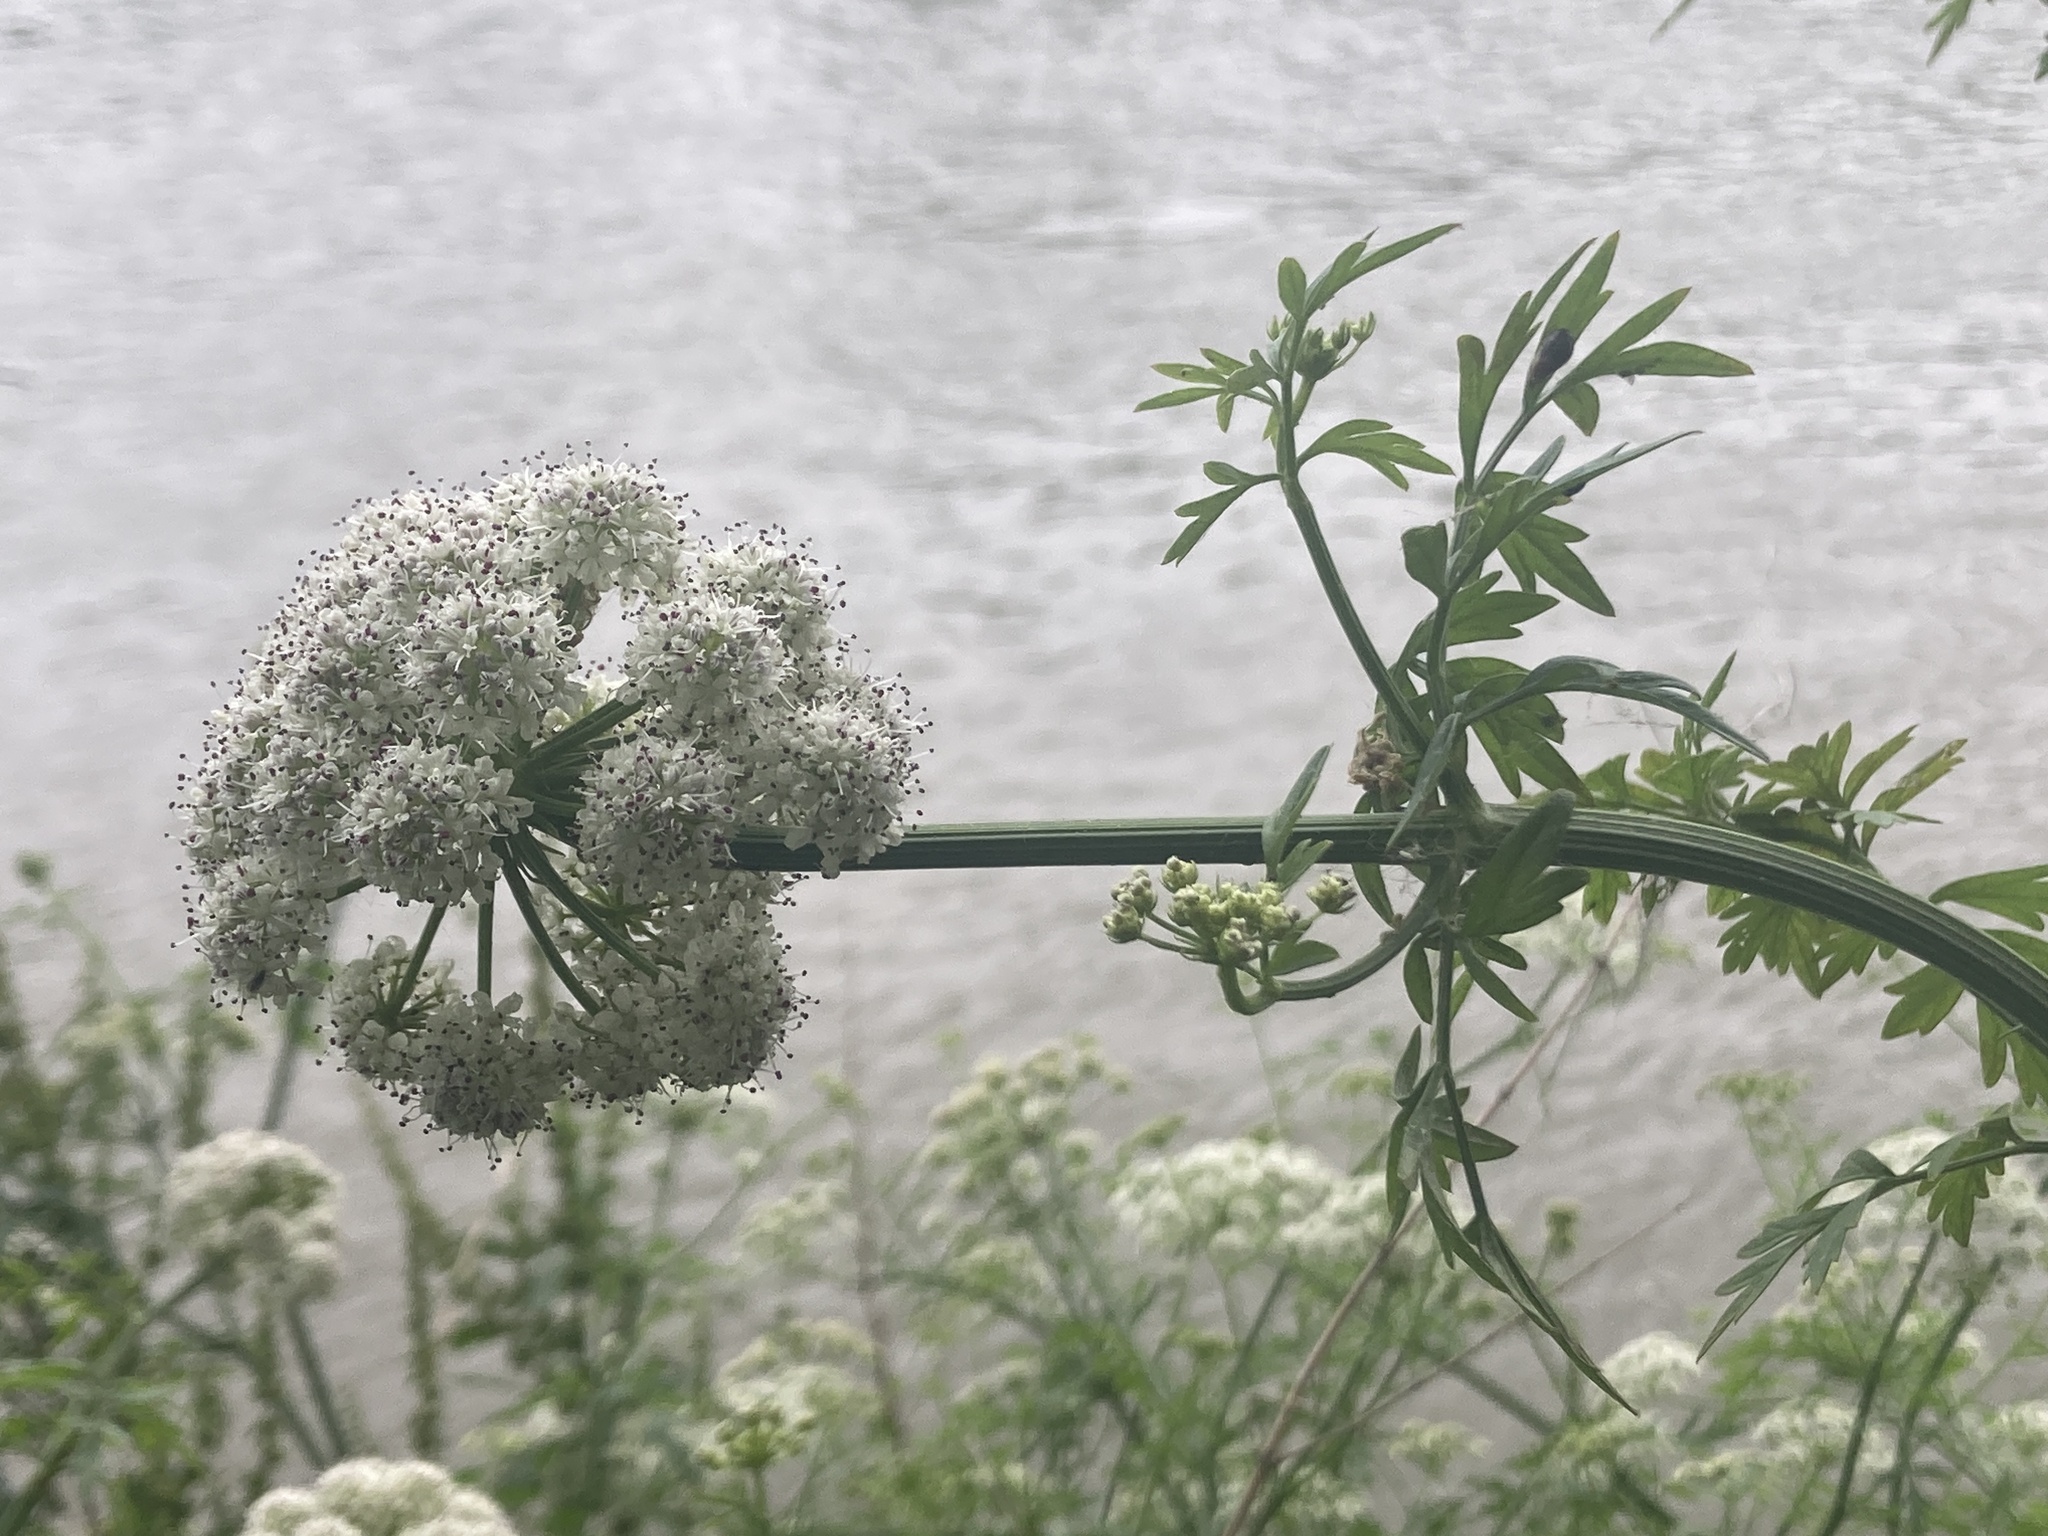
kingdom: Plantae
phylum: Tracheophyta
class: Magnoliopsida
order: Apiales
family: Apiaceae
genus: Oenanthe
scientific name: Oenanthe crocata
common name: Hemlock water-dropwort
